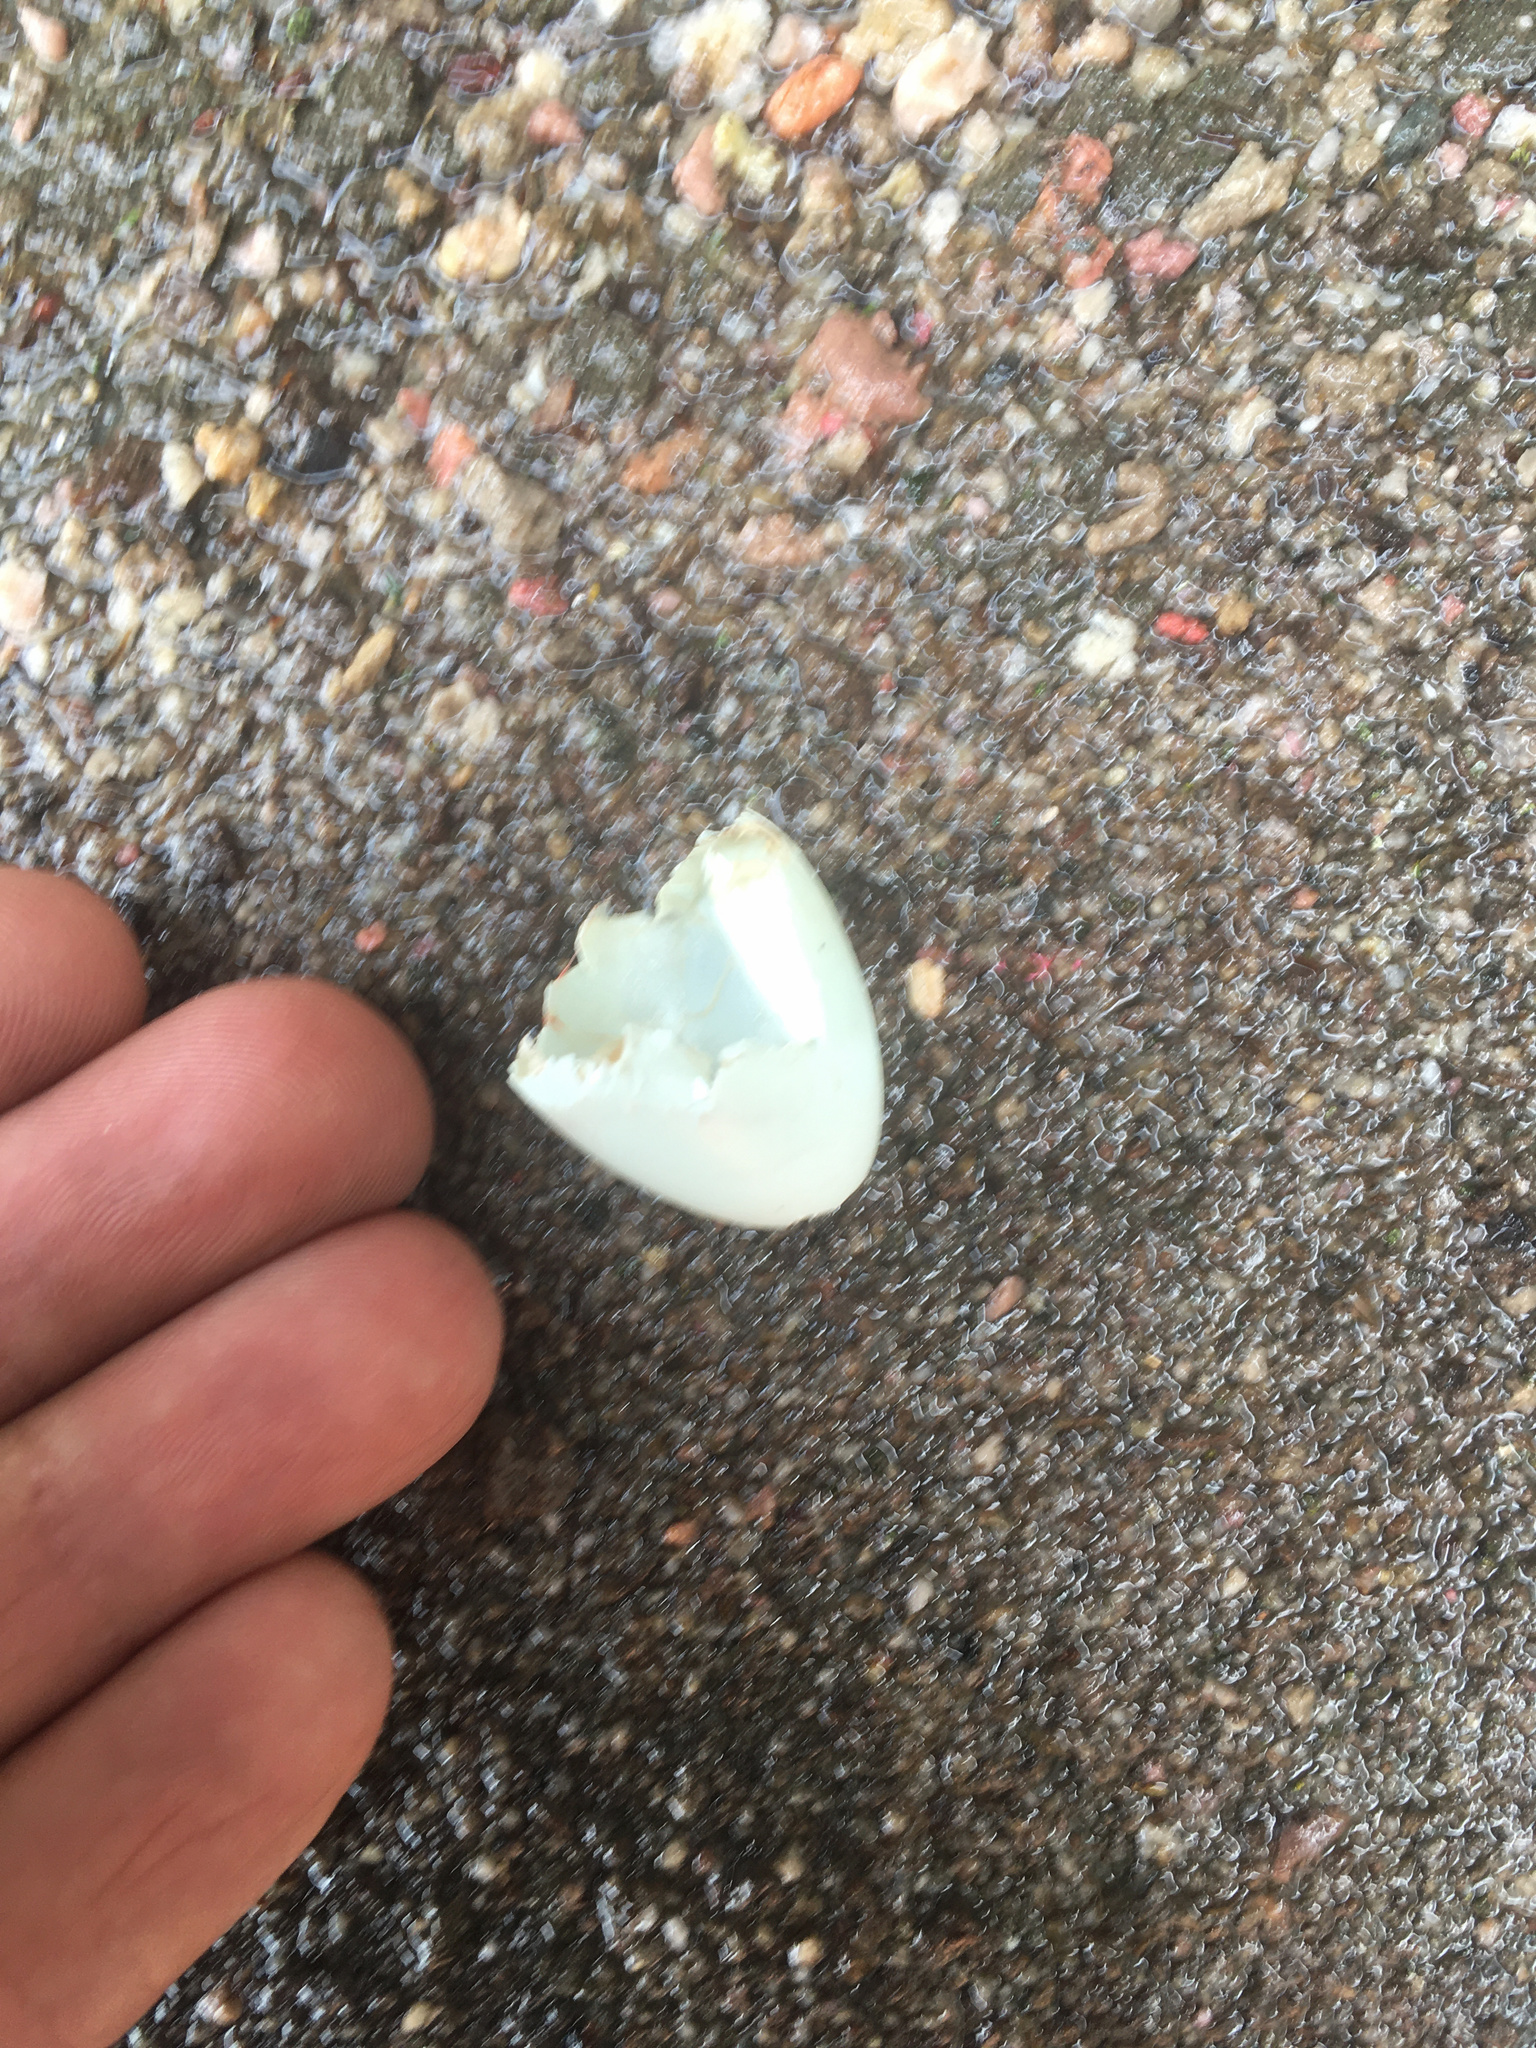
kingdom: Animalia
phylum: Chordata
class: Aves
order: Passeriformes
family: Sturnidae
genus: Sturnus
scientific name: Sturnus vulgaris
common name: Common starling
